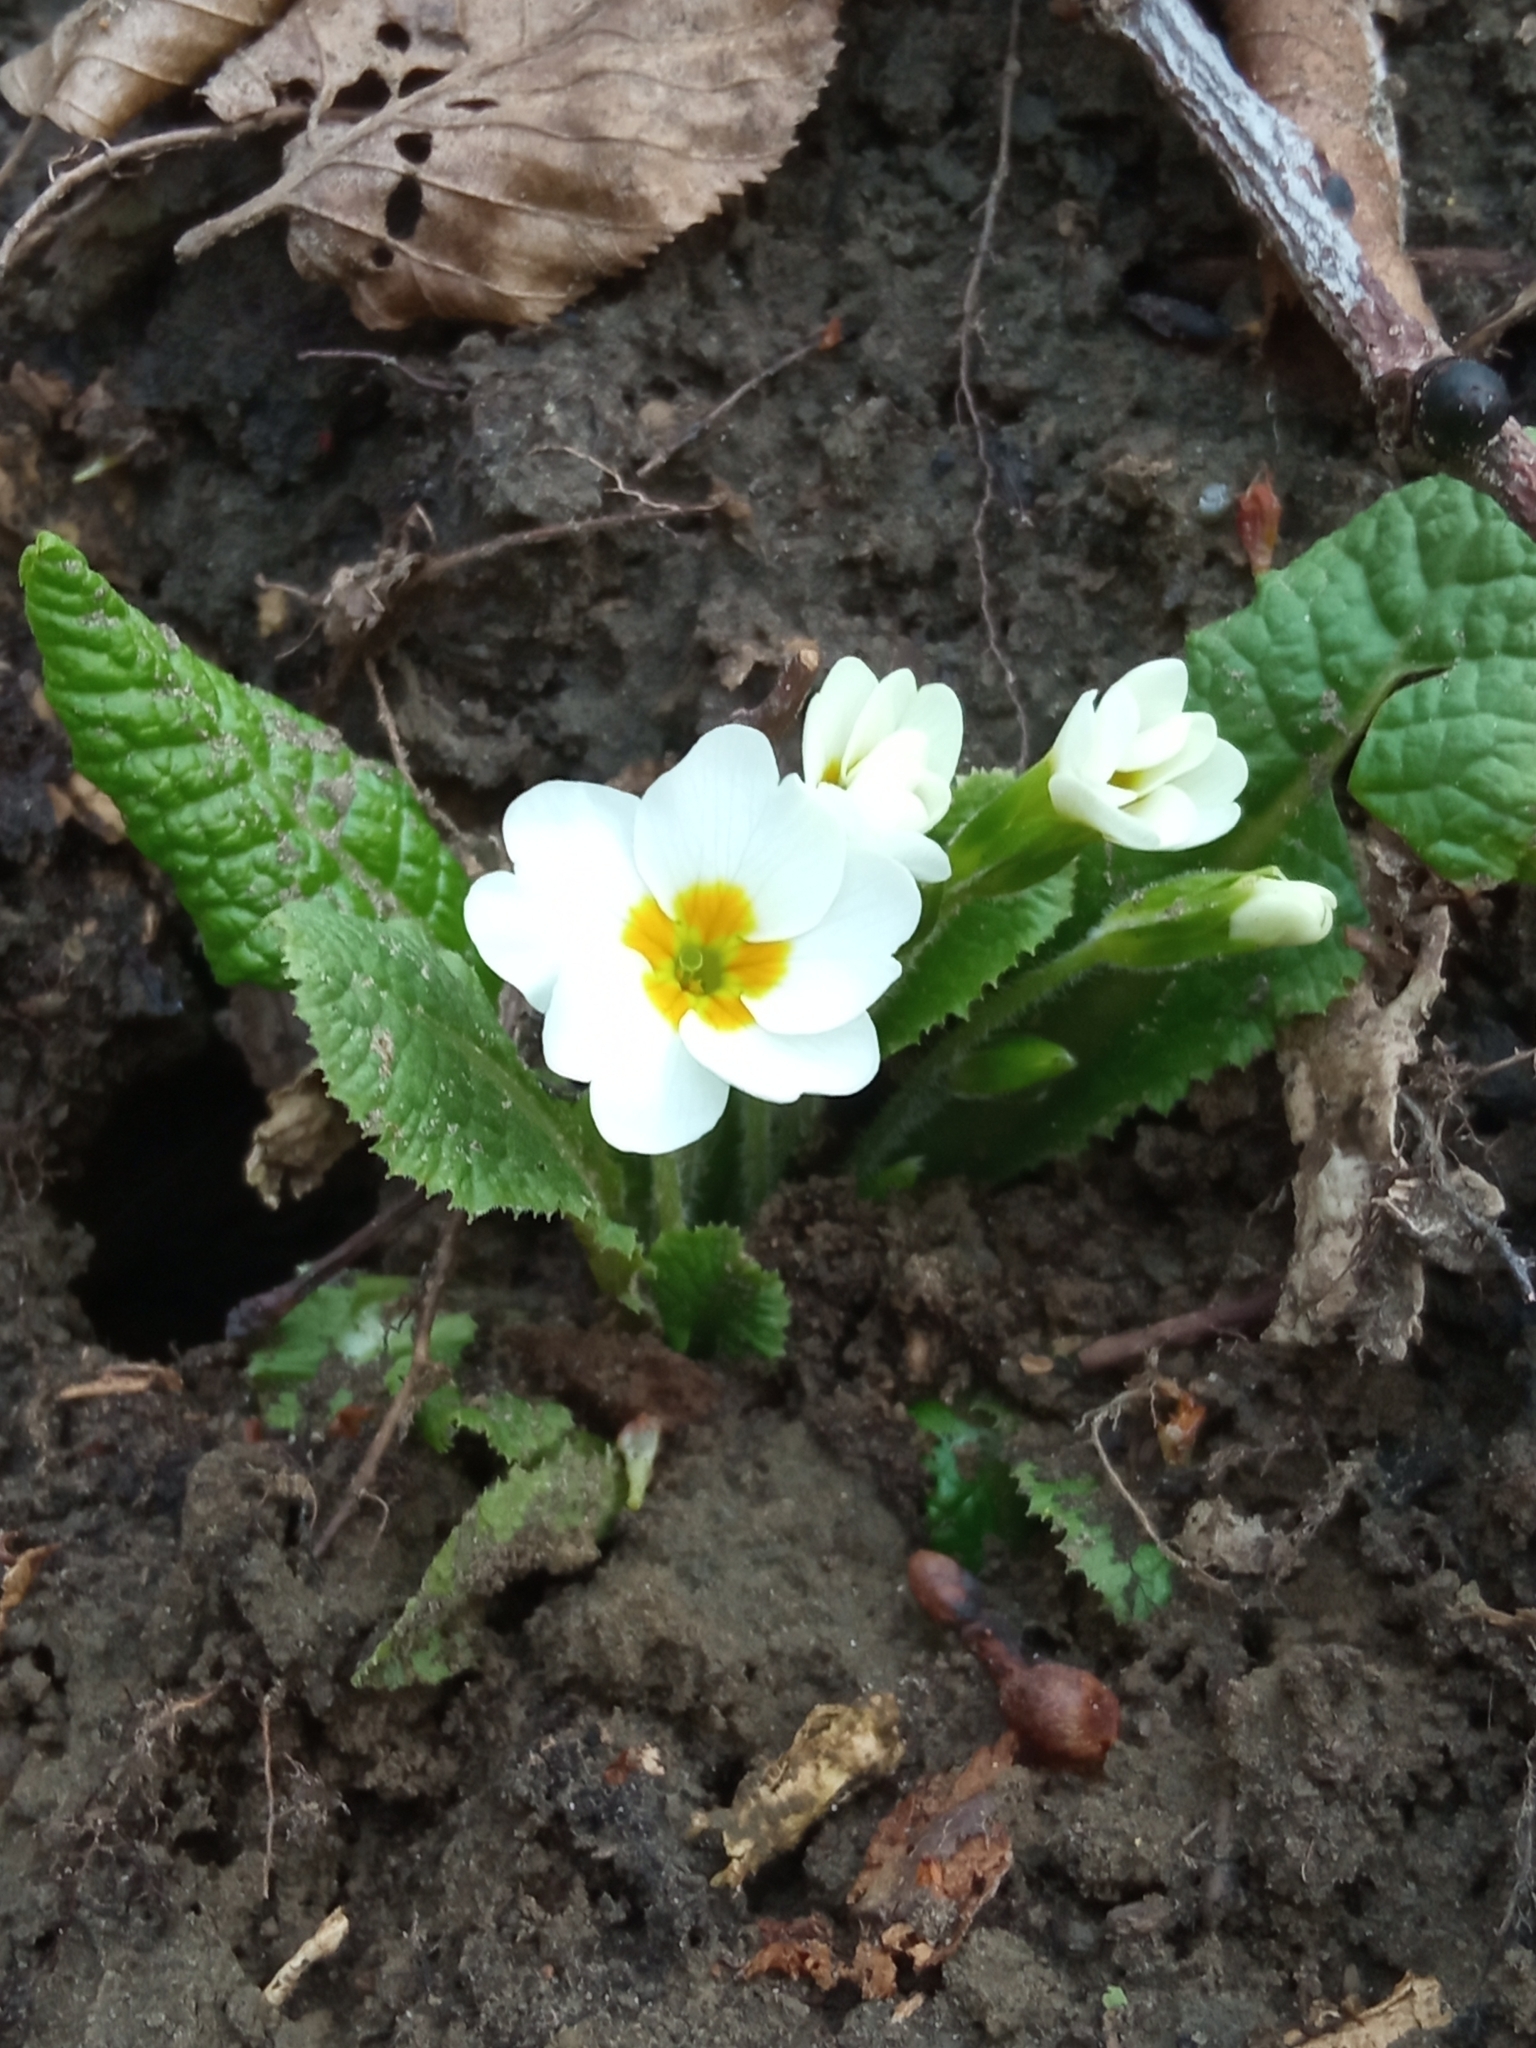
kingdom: Plantae
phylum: Tracheophyta
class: Magnoliopsida
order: Ericales
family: Primulaceae
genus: Primula
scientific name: Primula vulgaris
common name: Primrose
